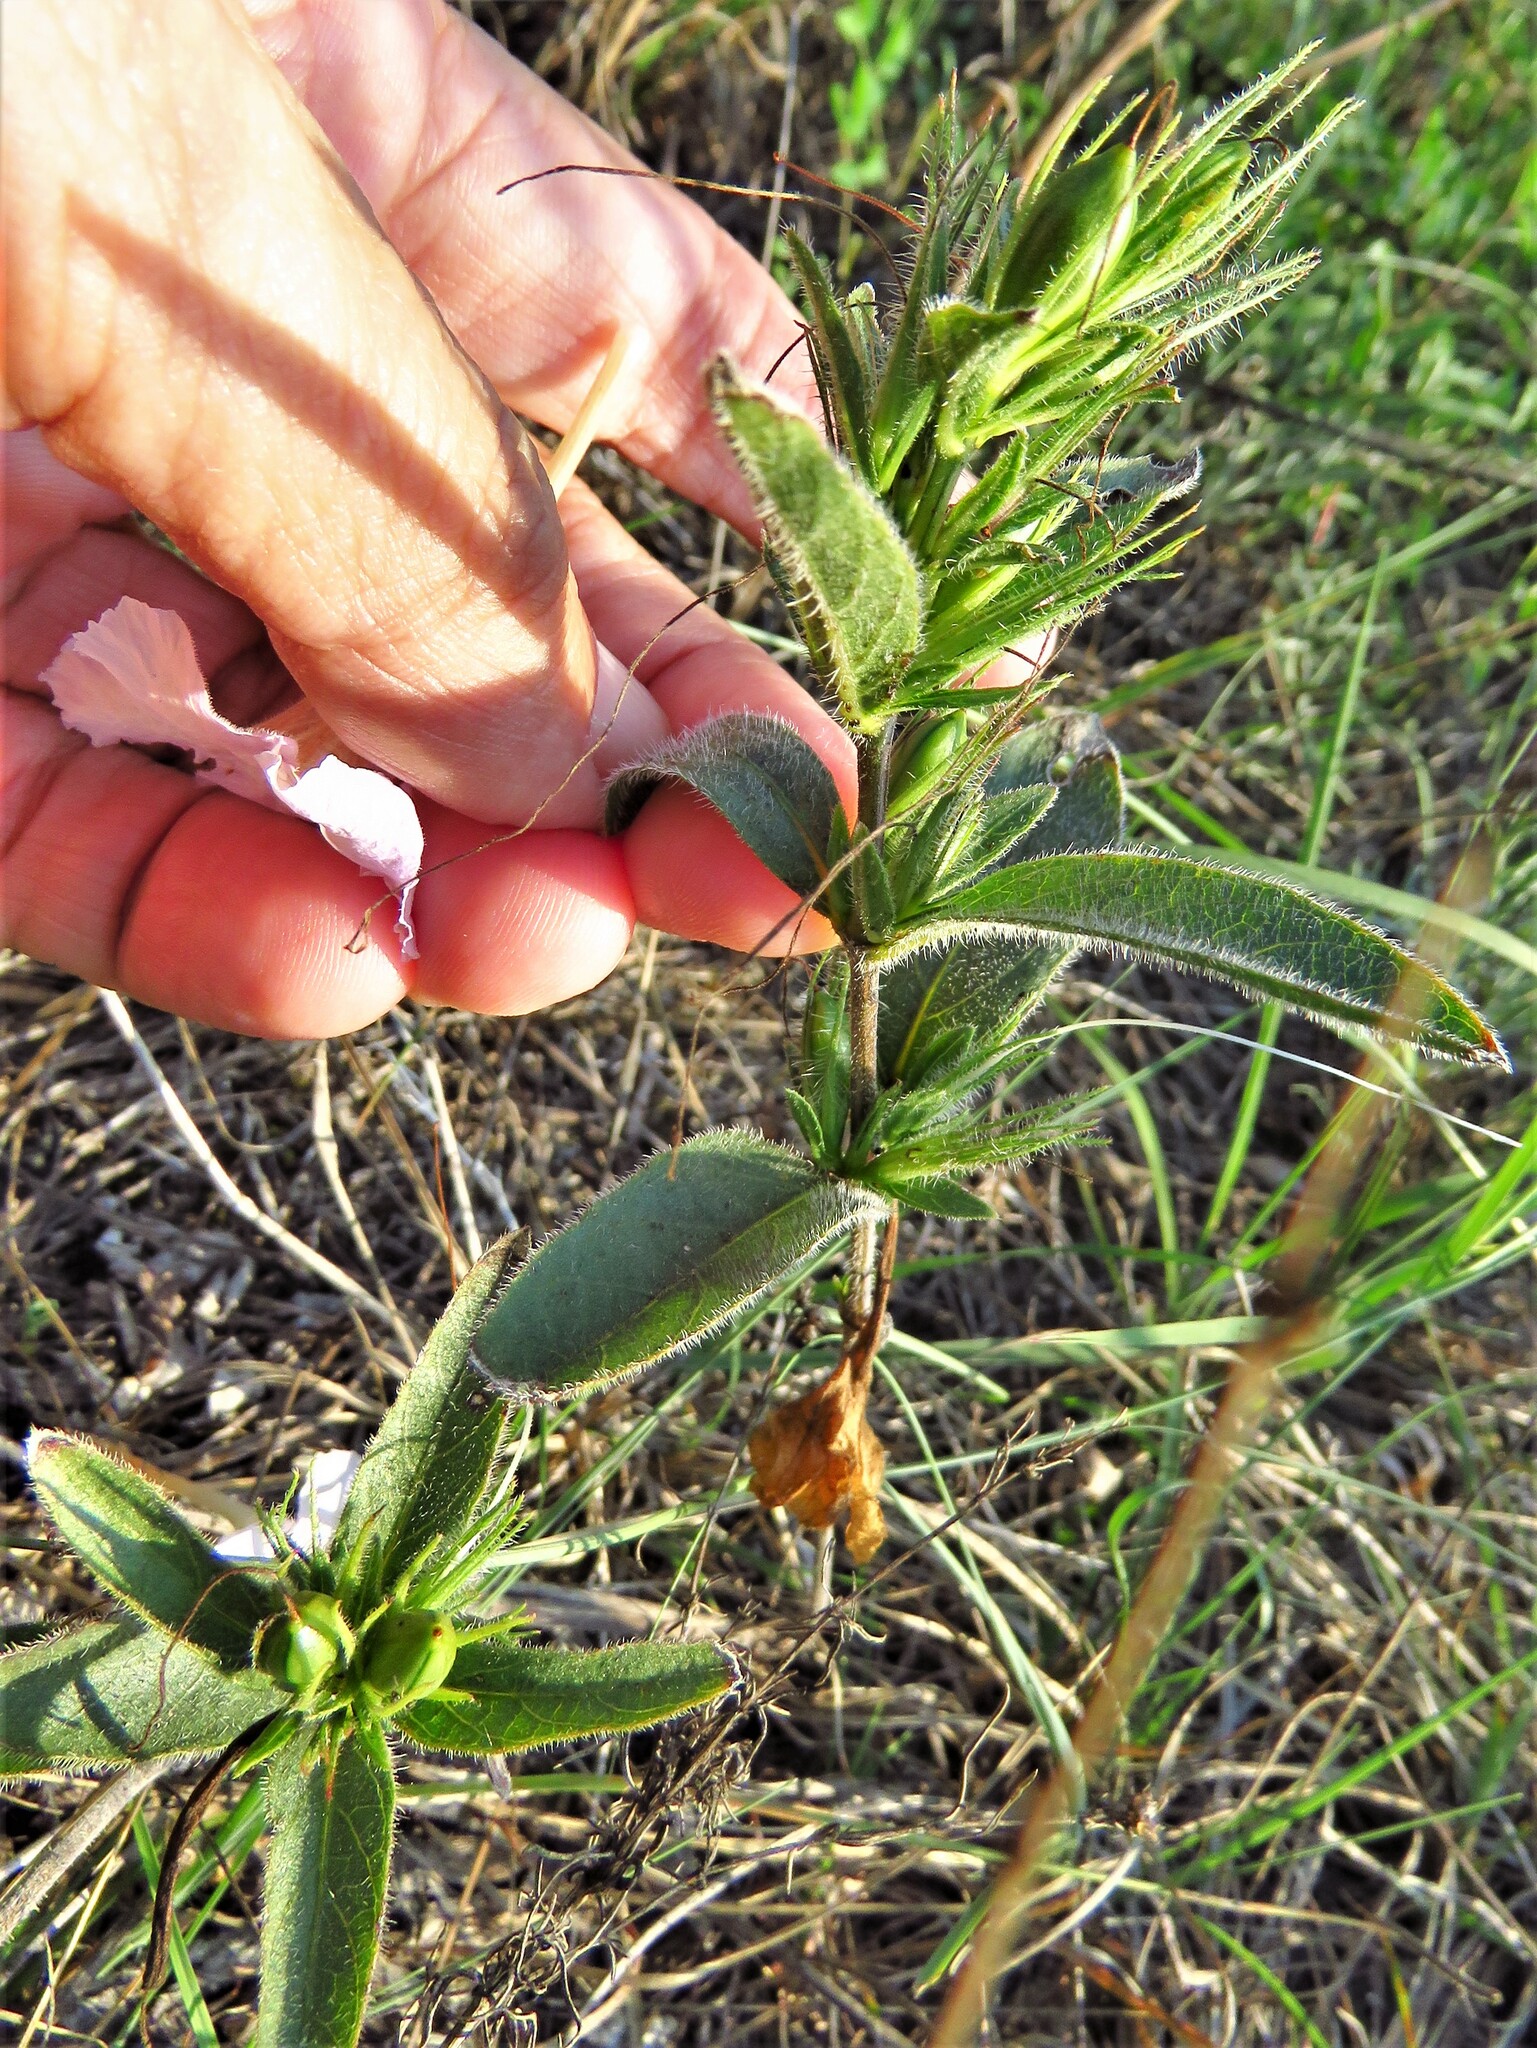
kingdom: Plantae
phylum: Tracheophyta
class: Magnoliopsida
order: Lamiales
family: Acanthaceae
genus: Ruellia
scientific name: Ruellia humilis
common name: Fringe-leaf ruellia
